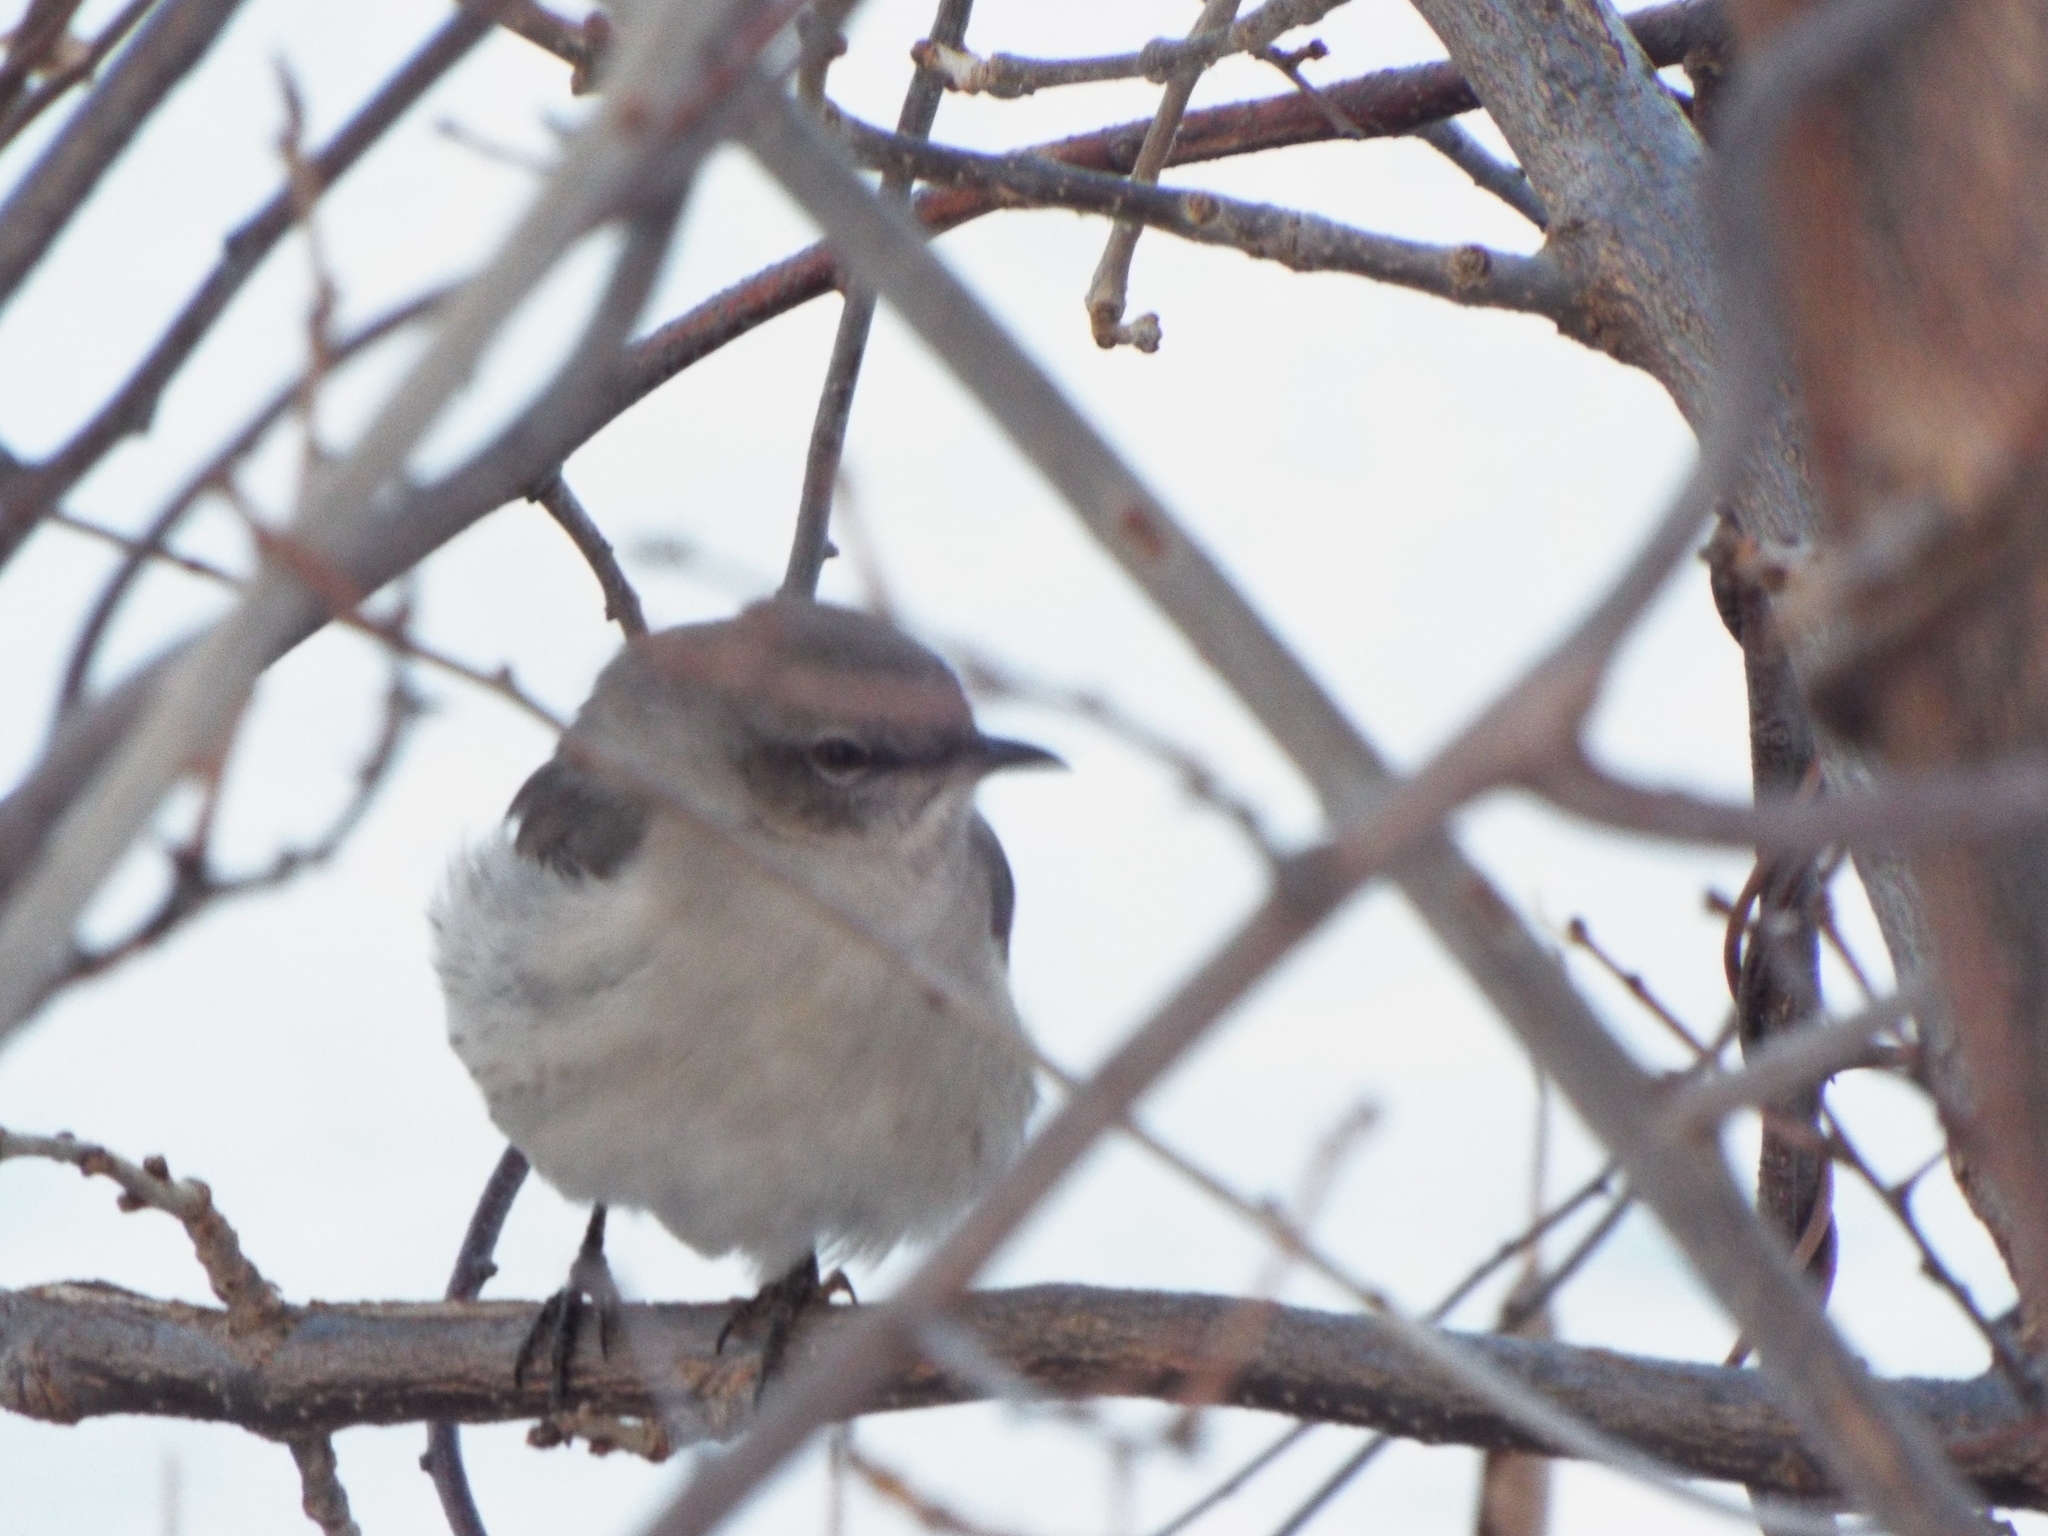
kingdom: Animalia
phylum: Chordata
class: Aves
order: Passeriformes
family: Mimidae
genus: Mimus
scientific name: Mimus polyglottos
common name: Northern mockingbird
